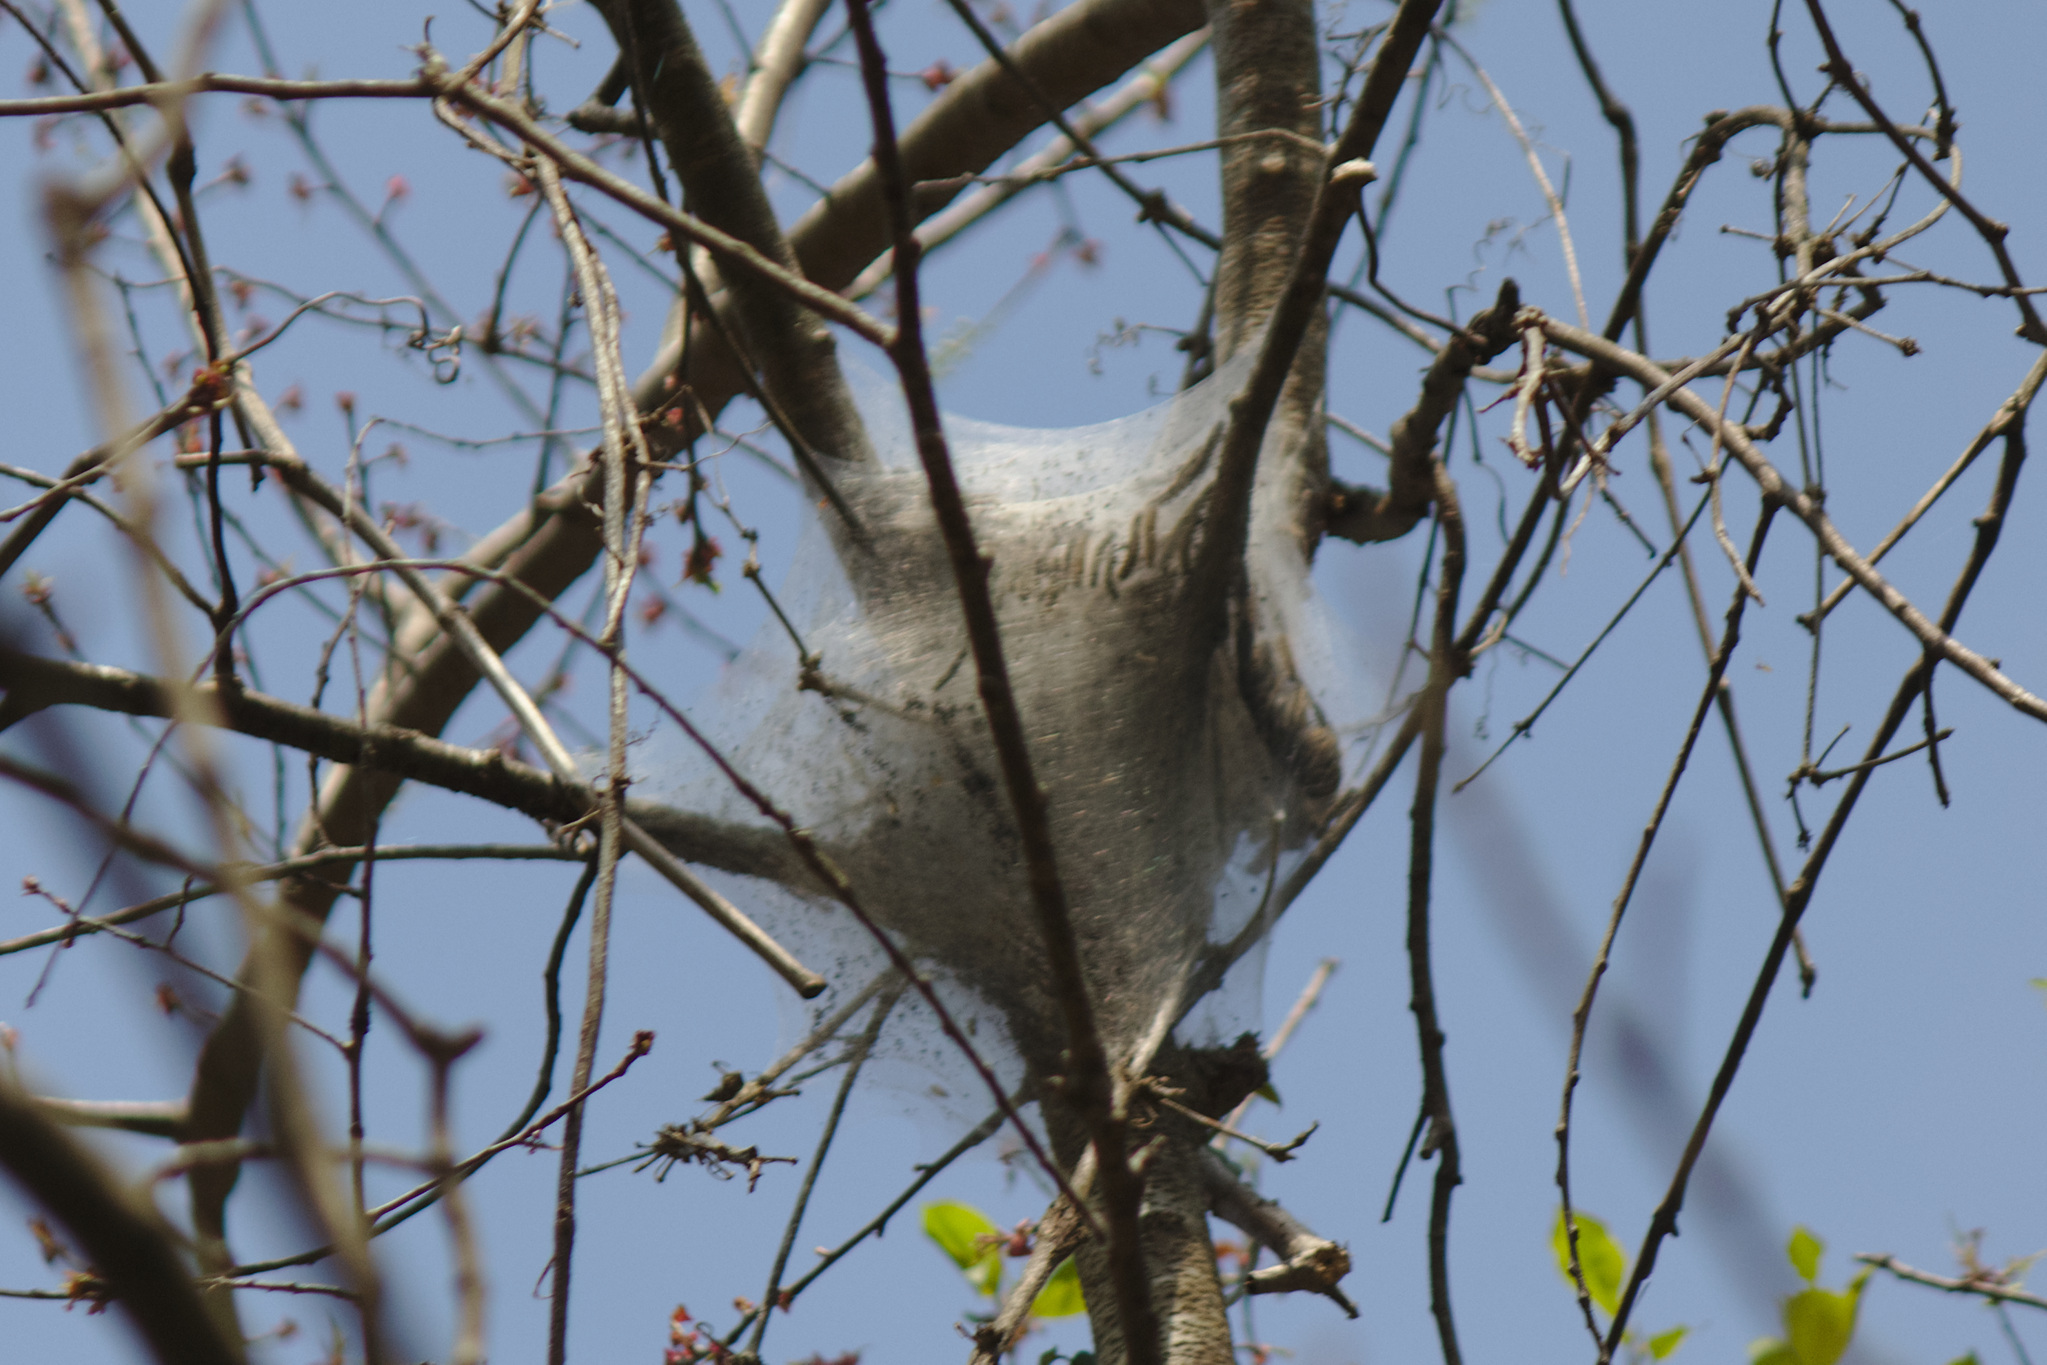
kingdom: Animalia
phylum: Arthropoda
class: Insecta
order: Lepidoptera
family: Lasiocampidae
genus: Malacosoma
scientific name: Malacosoma americana
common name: Eastern tent caterpillar moth
